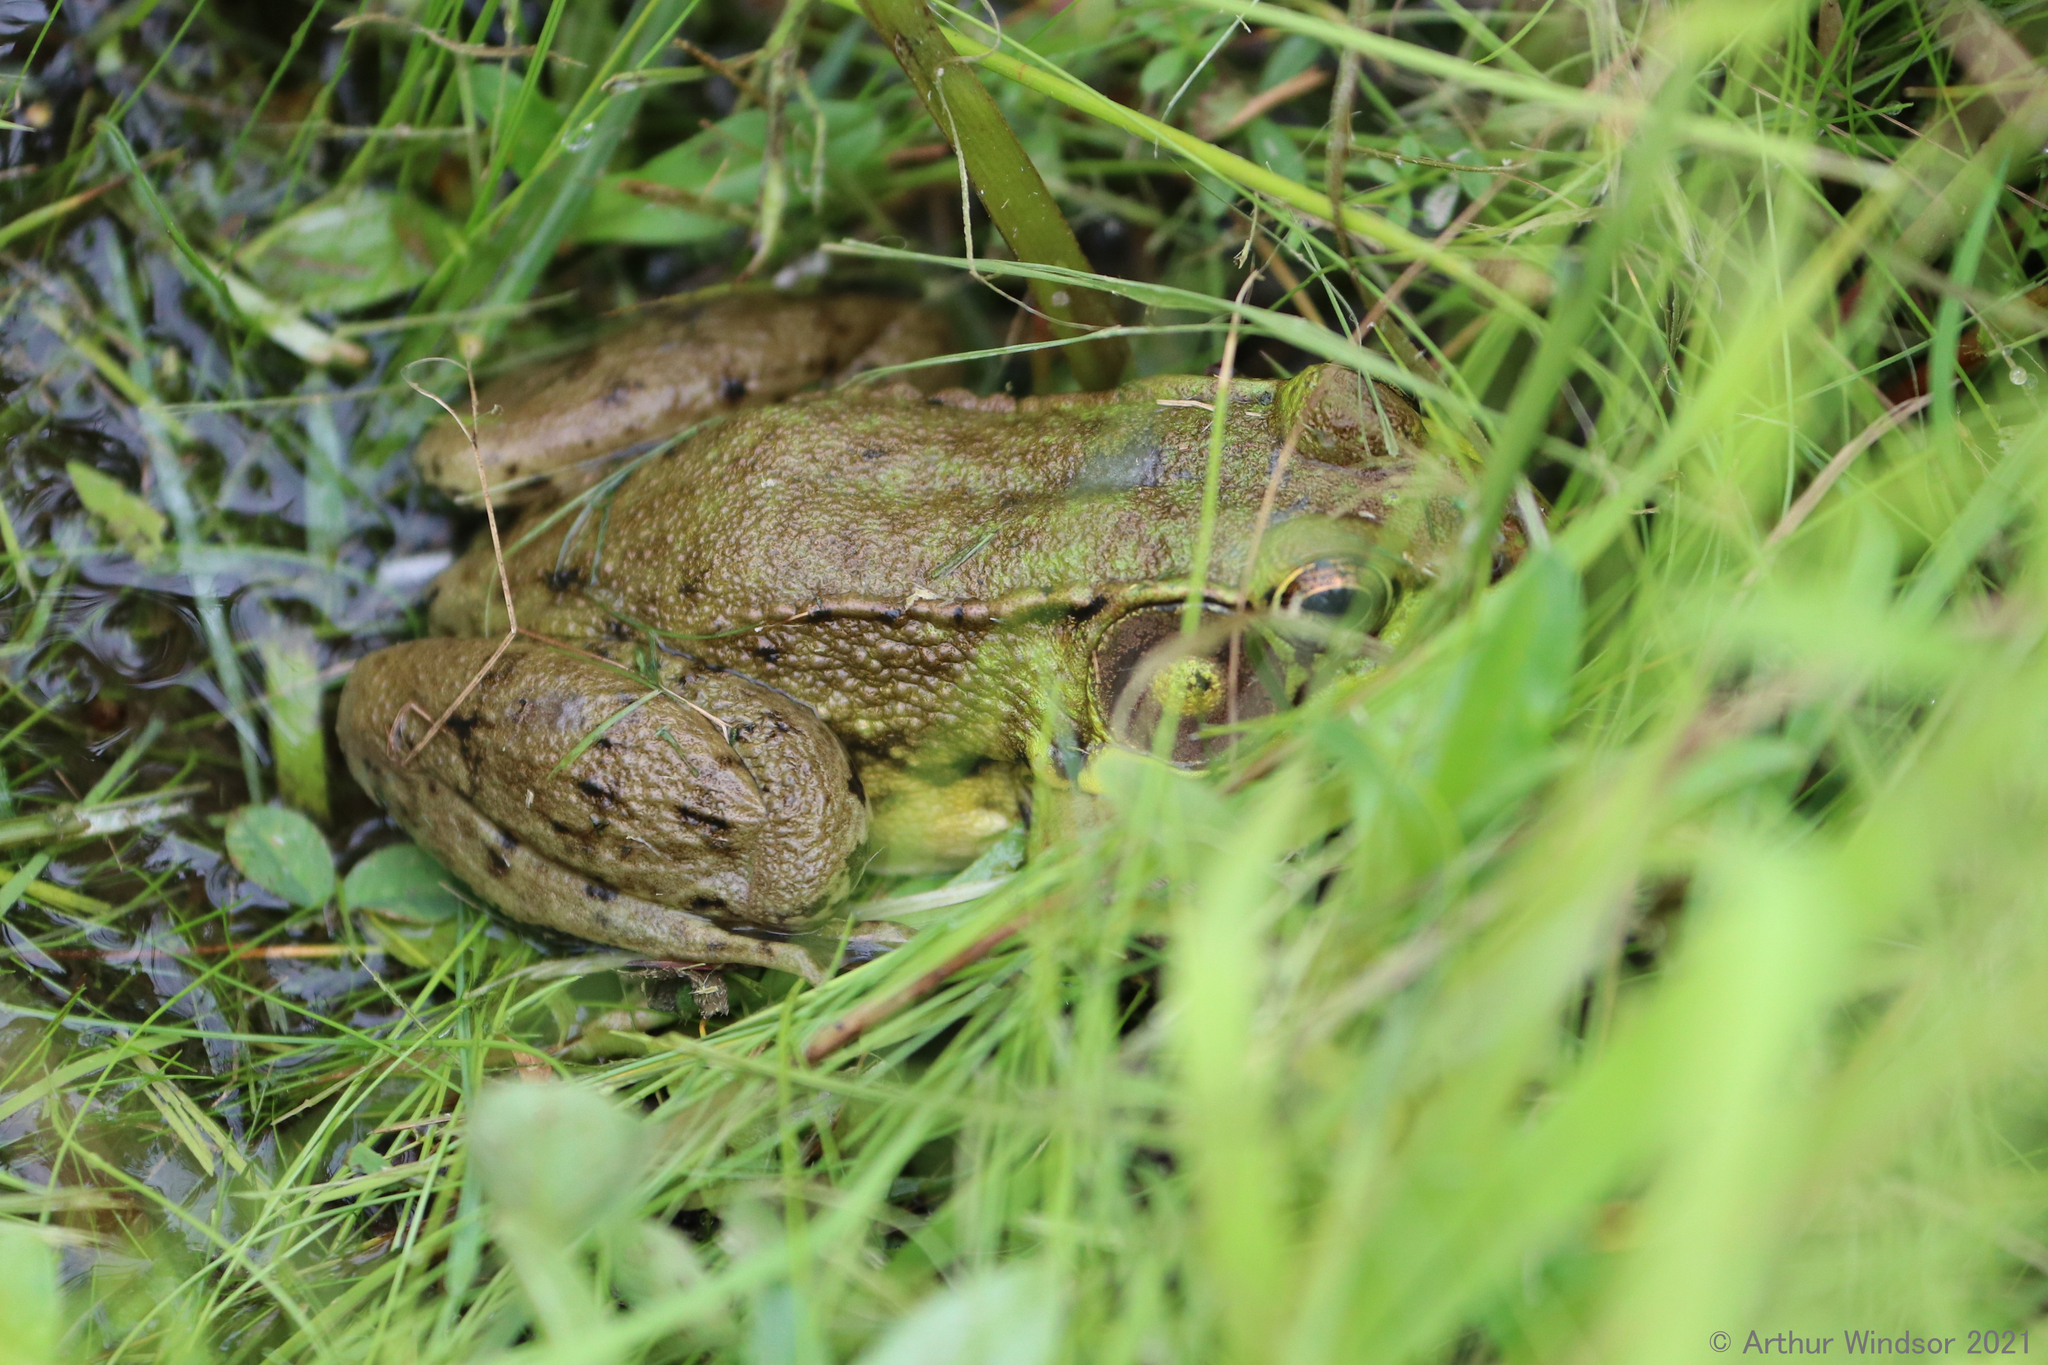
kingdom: Animalia
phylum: Chordata
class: Amphibia
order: Anura
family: Ranidae
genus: Lithobates
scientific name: Lithobates clamitans
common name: Green frog
